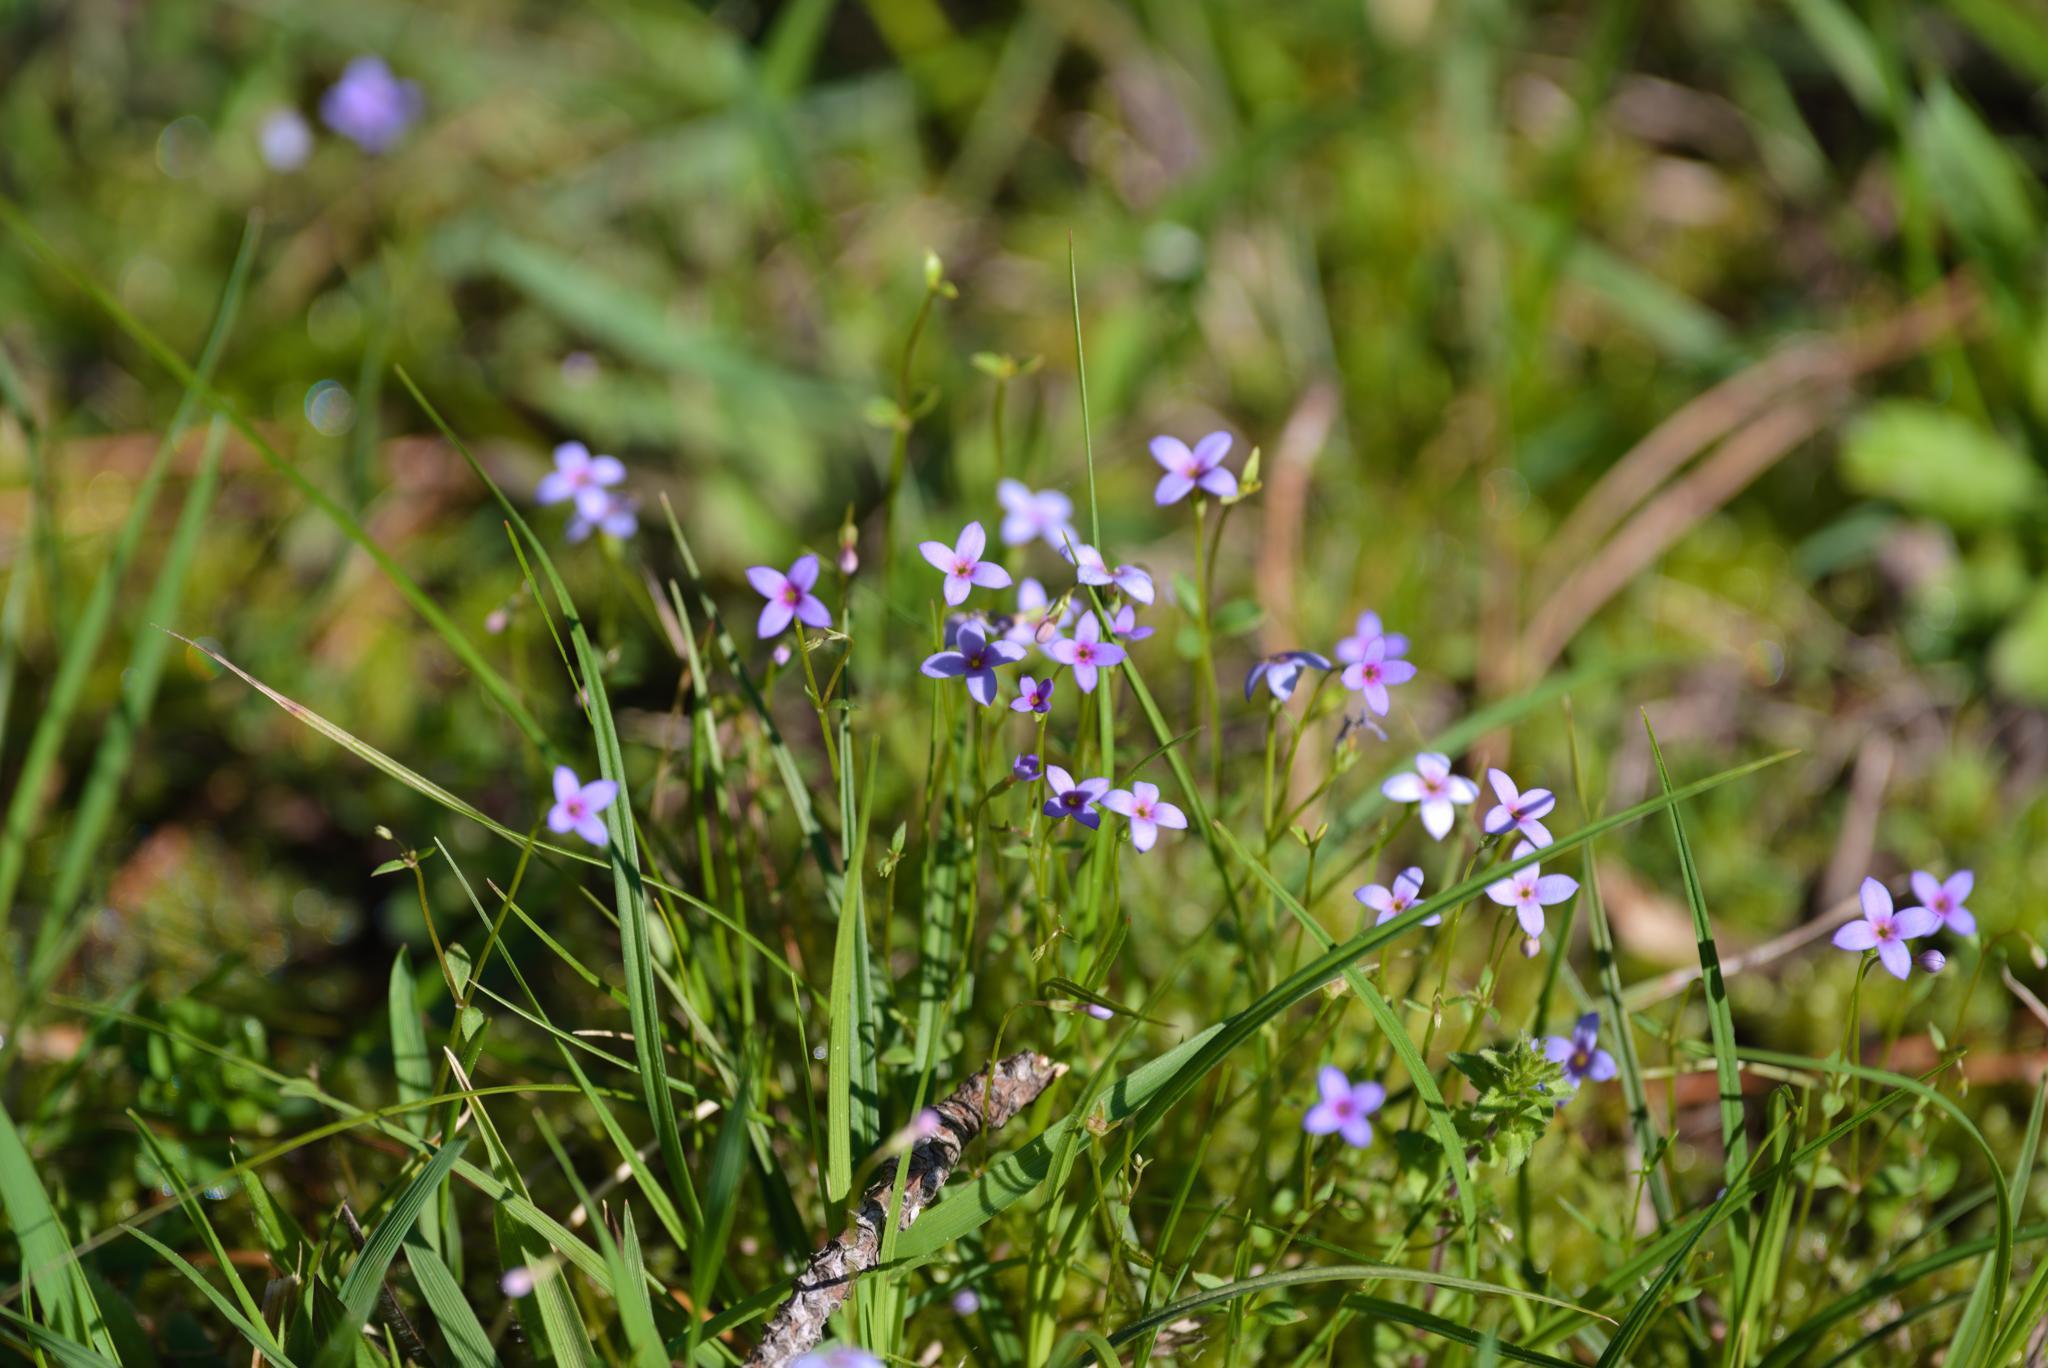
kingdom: Plantae
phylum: Tracheophyta
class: Magnoliopsida
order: Gentianales
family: Rubiaceae
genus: Houstonia
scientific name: Houstonia pusilla
